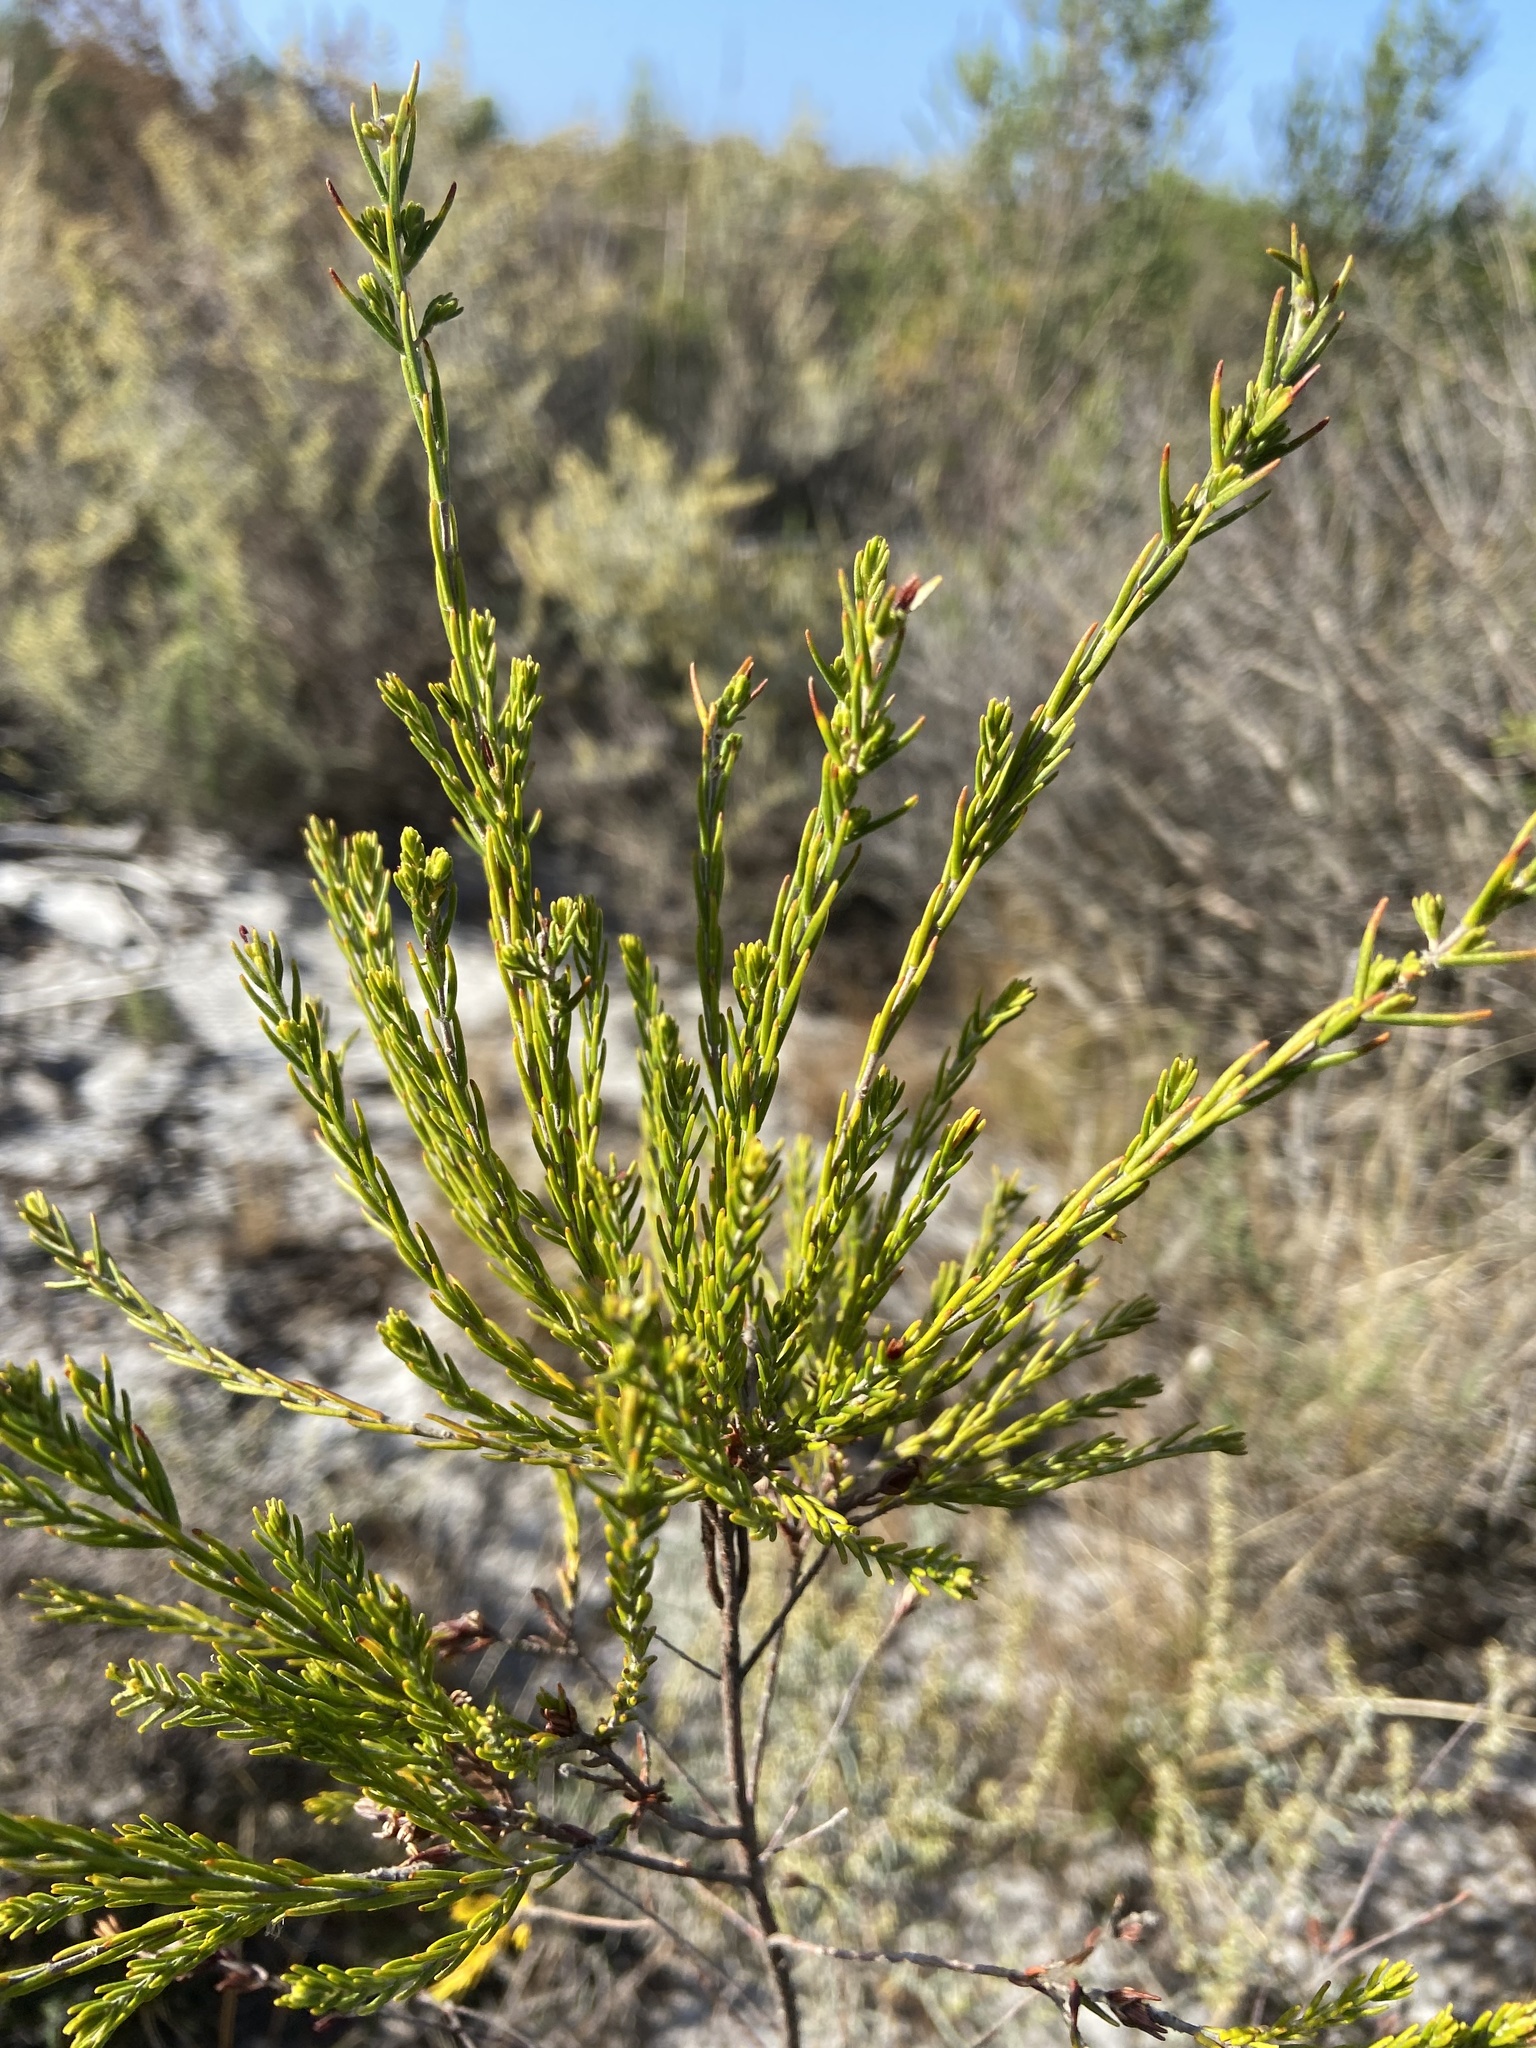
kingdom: Plantae
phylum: Tracheophyta
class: Magnoliopsida
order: Malvales
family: Thymelaeaceae
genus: Passerina
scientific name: Passerina corymbosa
